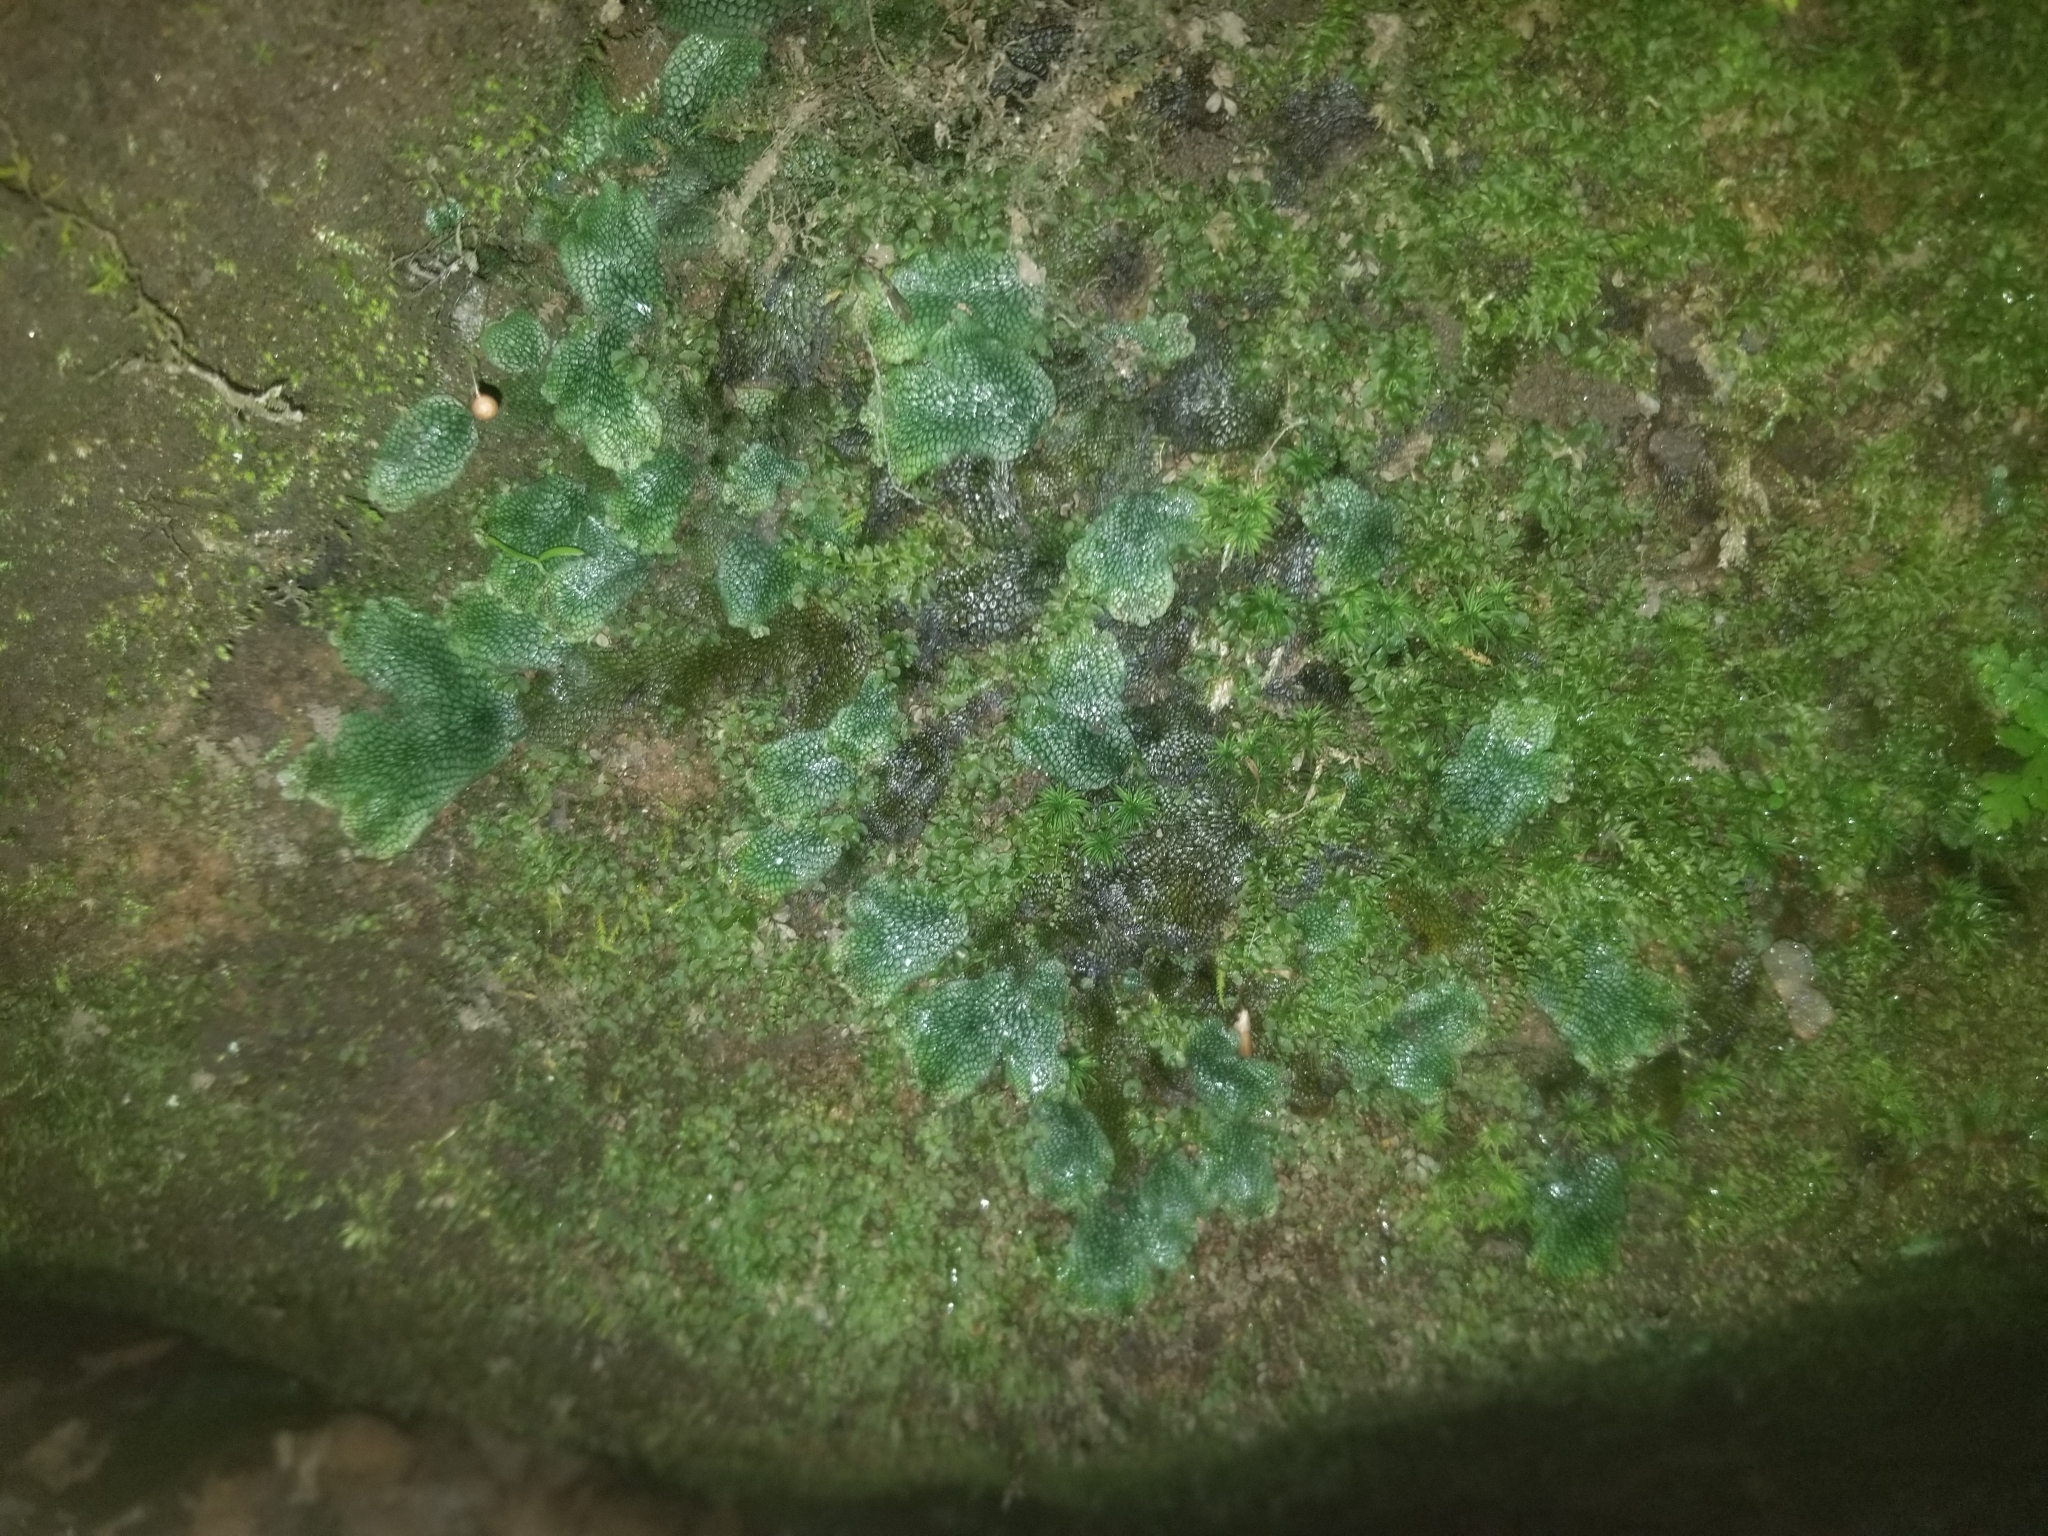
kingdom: Plantae
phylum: Marchantiophyta
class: Marchantiopsida
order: Marchantiales
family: Conocephalaceae
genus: Conocephalum
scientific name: Conocephalum salebrosum
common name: Cat-tongue liverwort
